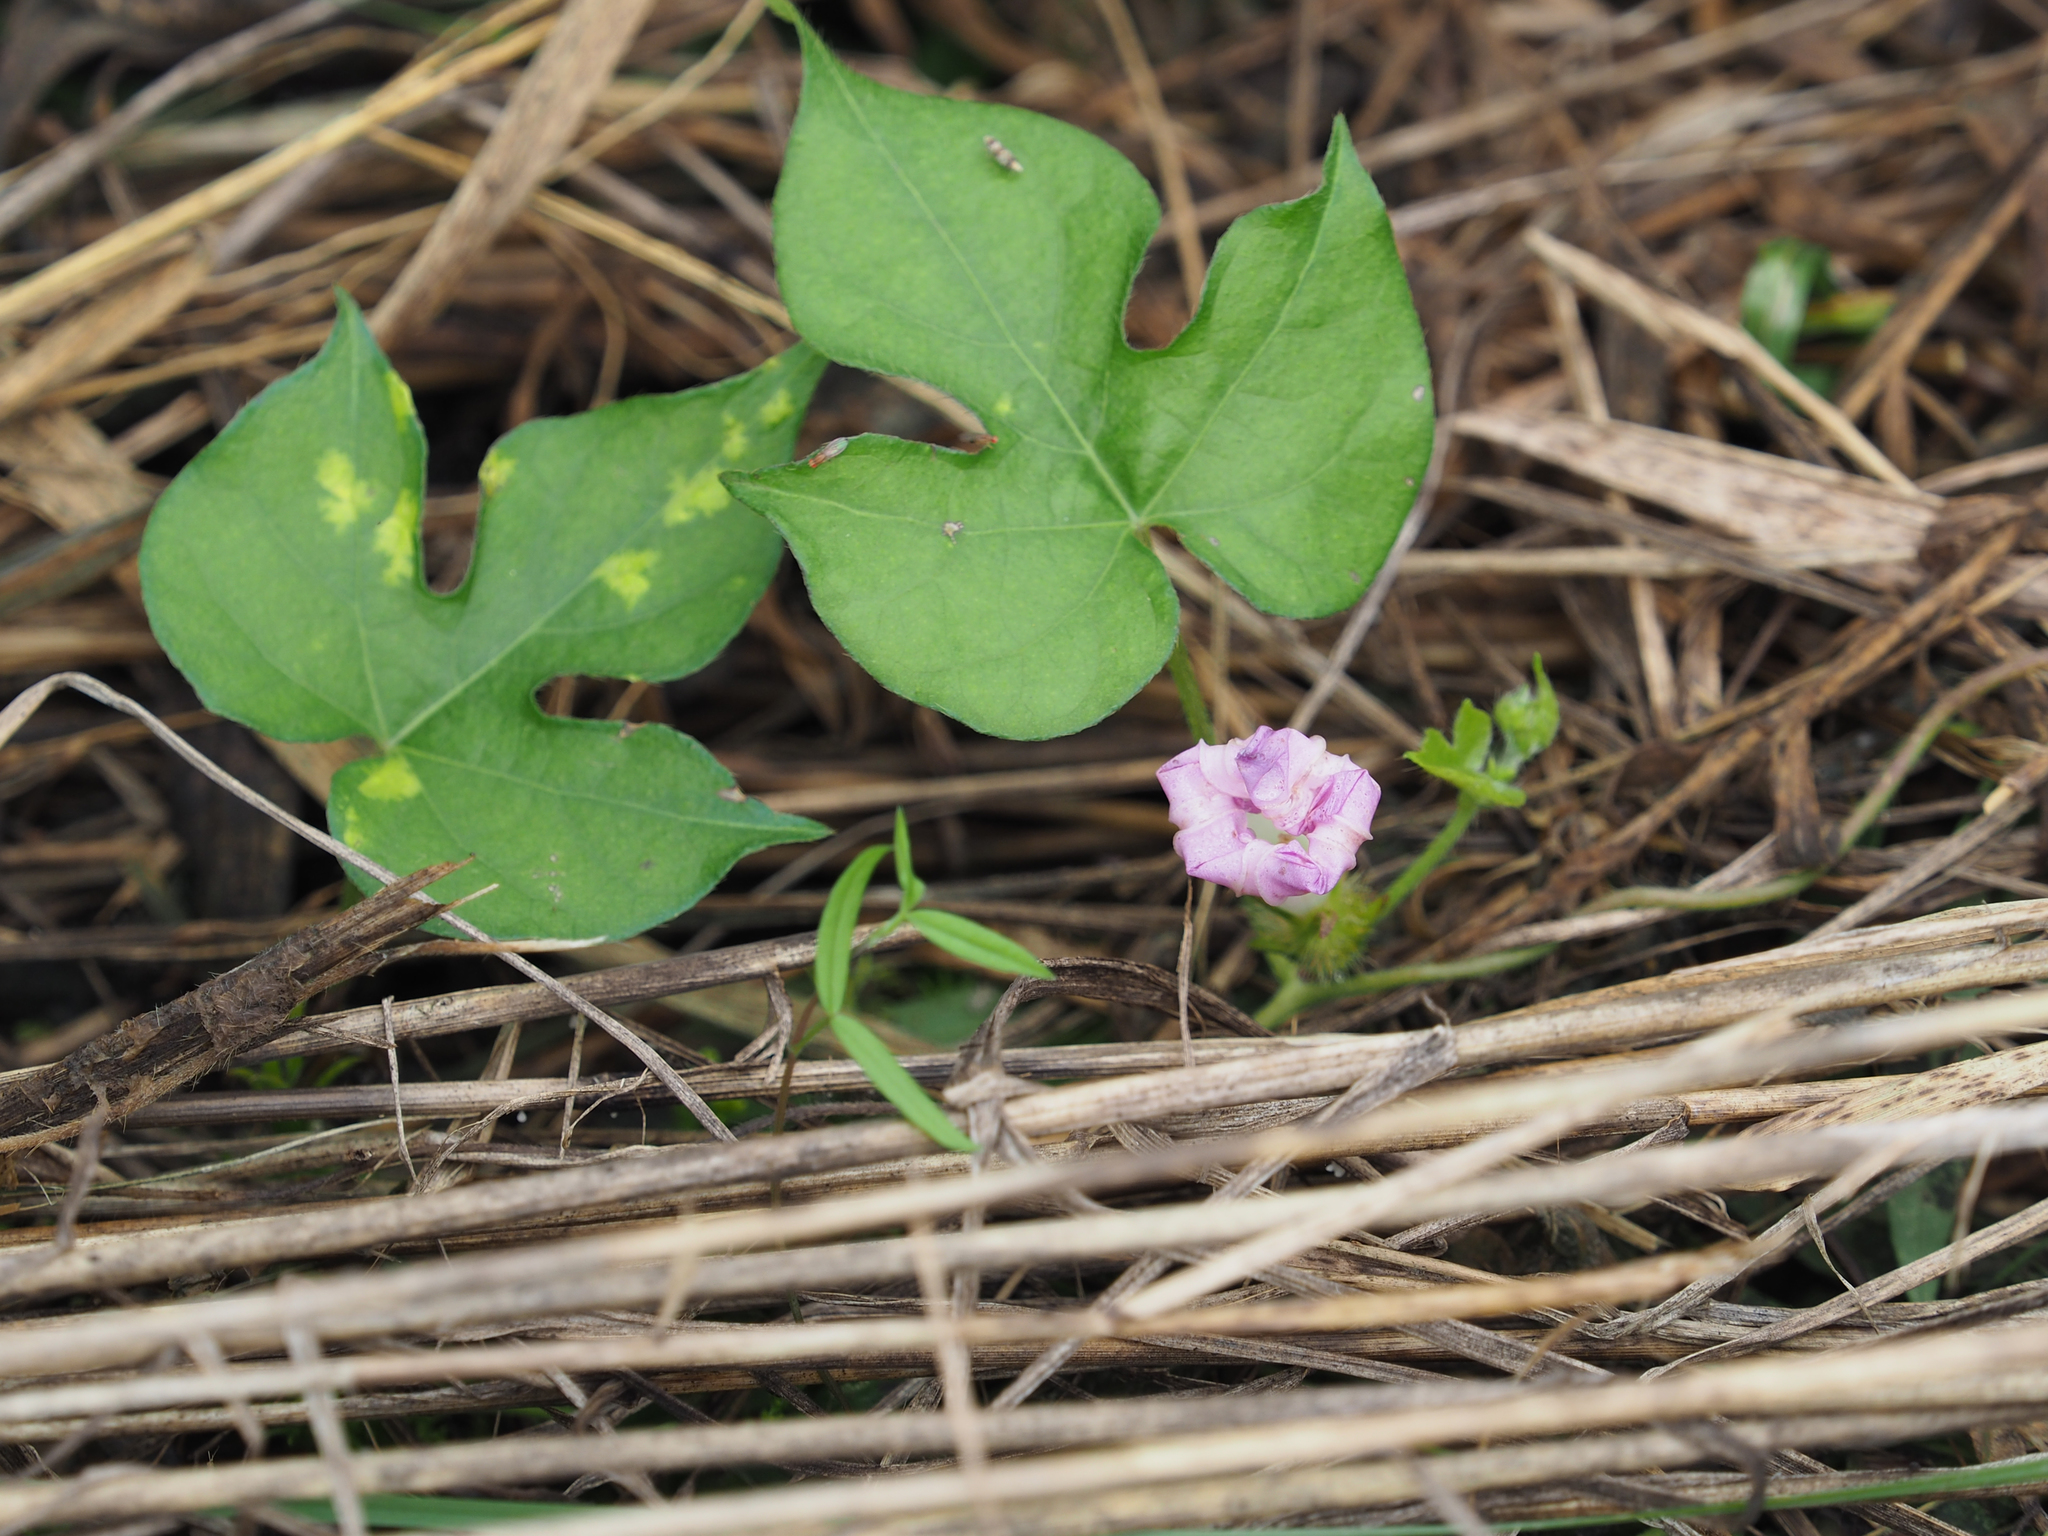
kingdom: Plantae
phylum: Tracheophyta
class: Magnoliopsida
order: Solanales
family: Convolvulaceae
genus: Ipomoea
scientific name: Ipomoea hederacea
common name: Ivy-leaved morning-glory
